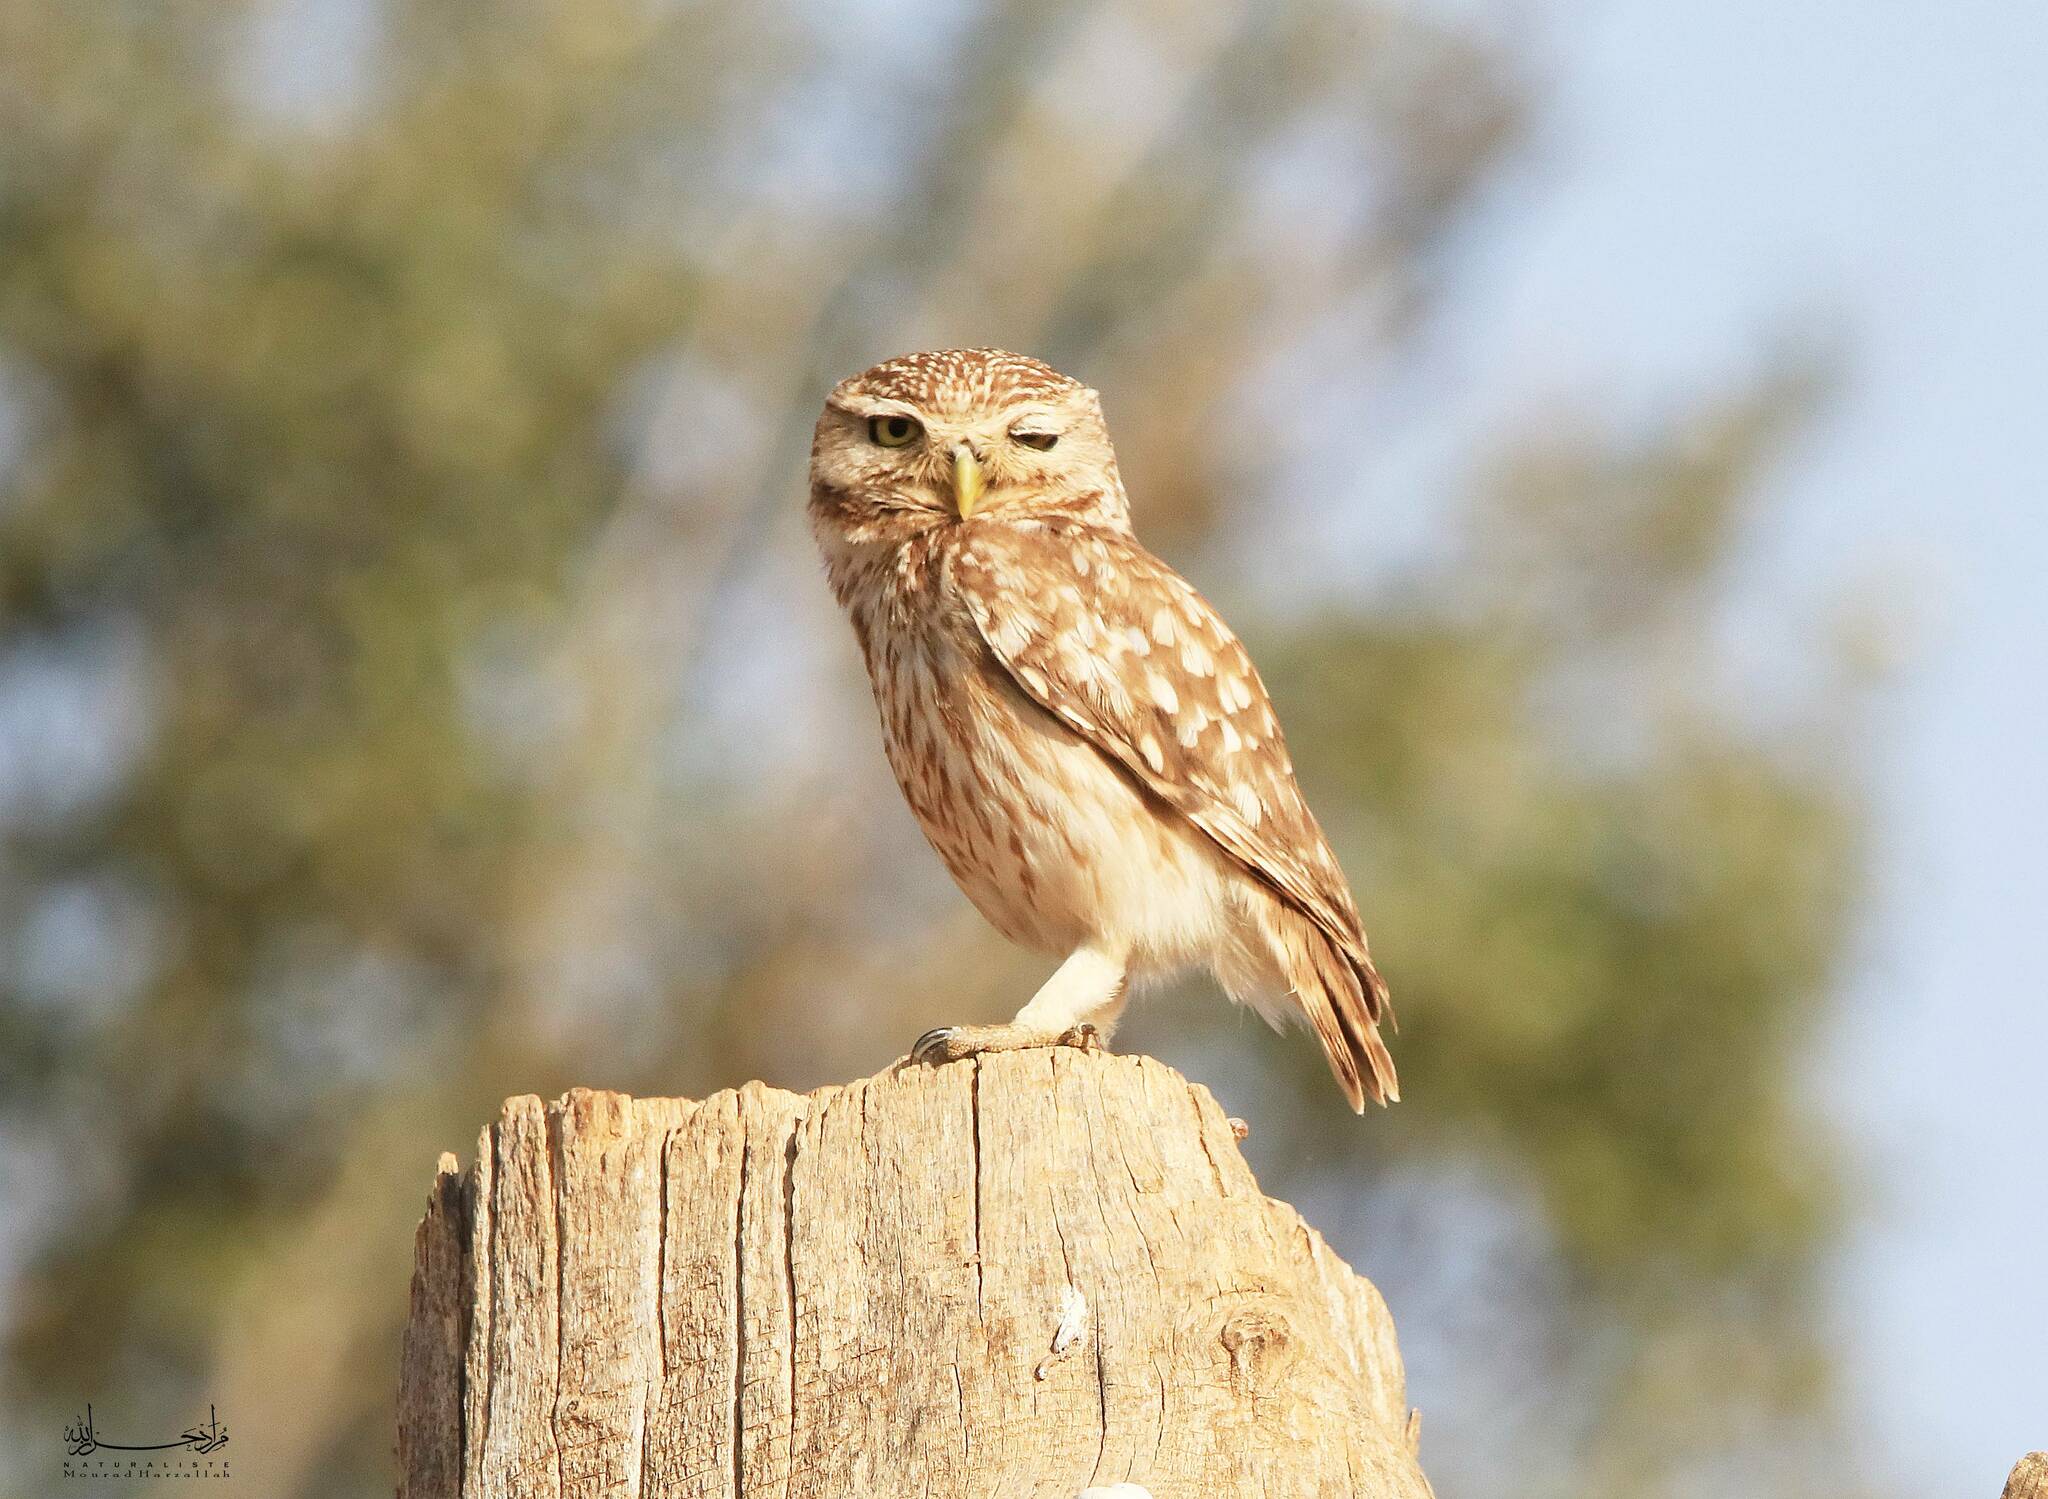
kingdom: Animalia
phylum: Chordata
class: Aves
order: Strigiformes
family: Strigidae
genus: Athene
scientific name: Athene noctua
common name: Little owl
